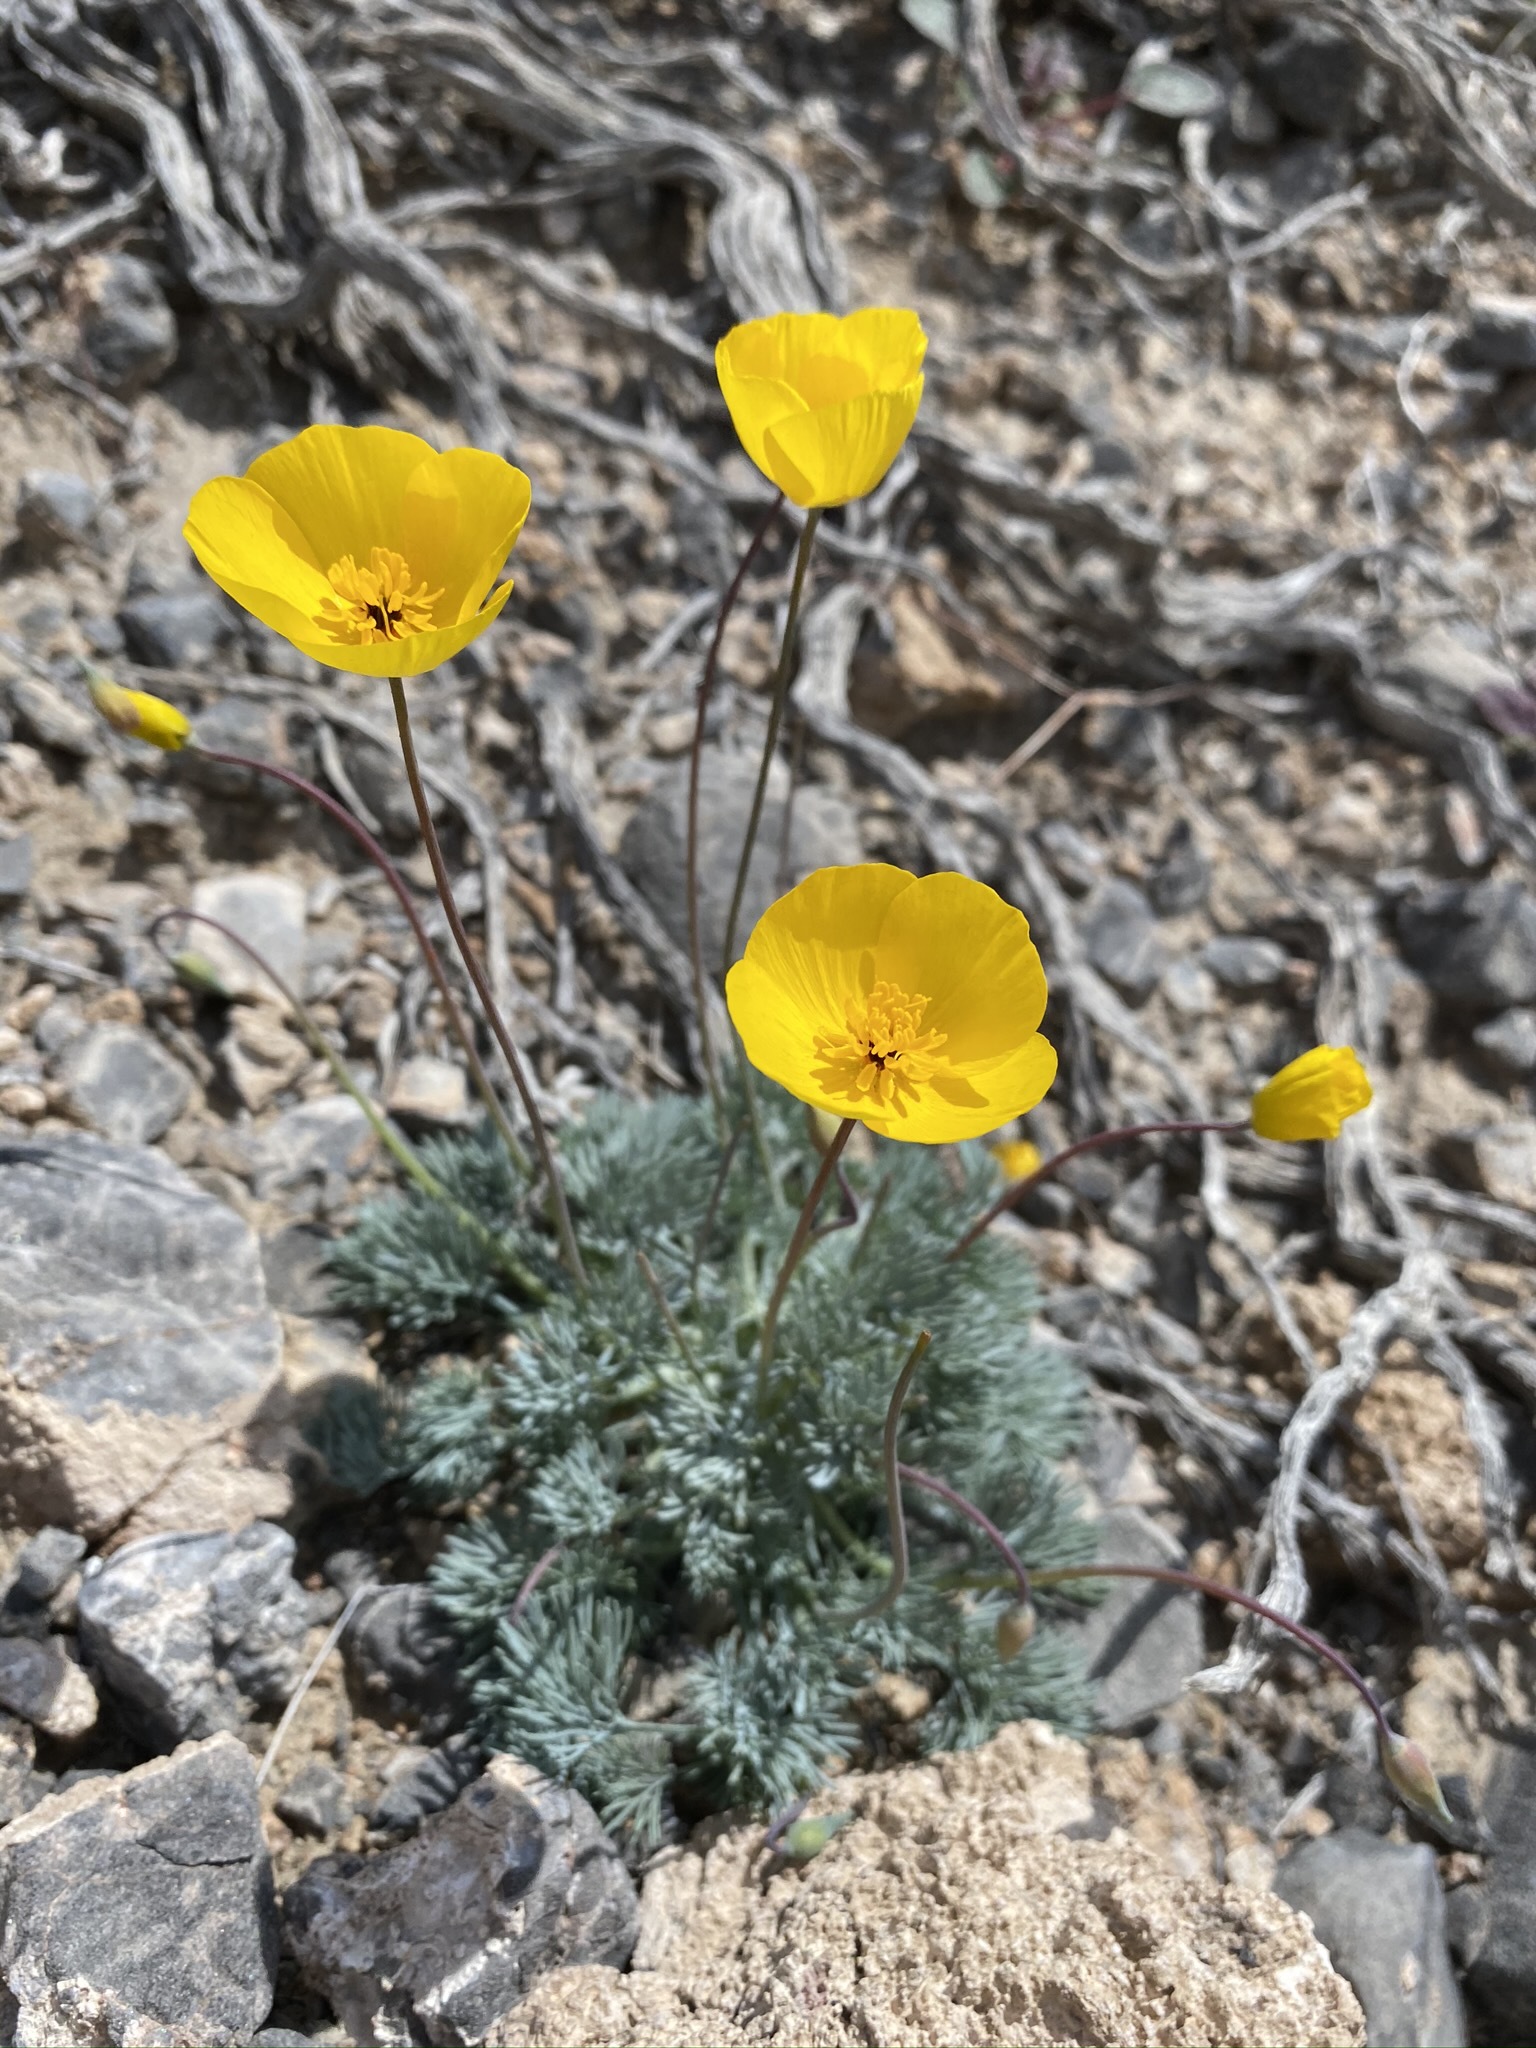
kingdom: Plantae
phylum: Tracheophyta
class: Magnoliopsida
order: Ranunculales
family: Papaveraceae
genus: Eschscholzia
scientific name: Eschscholzia glyptosperma
